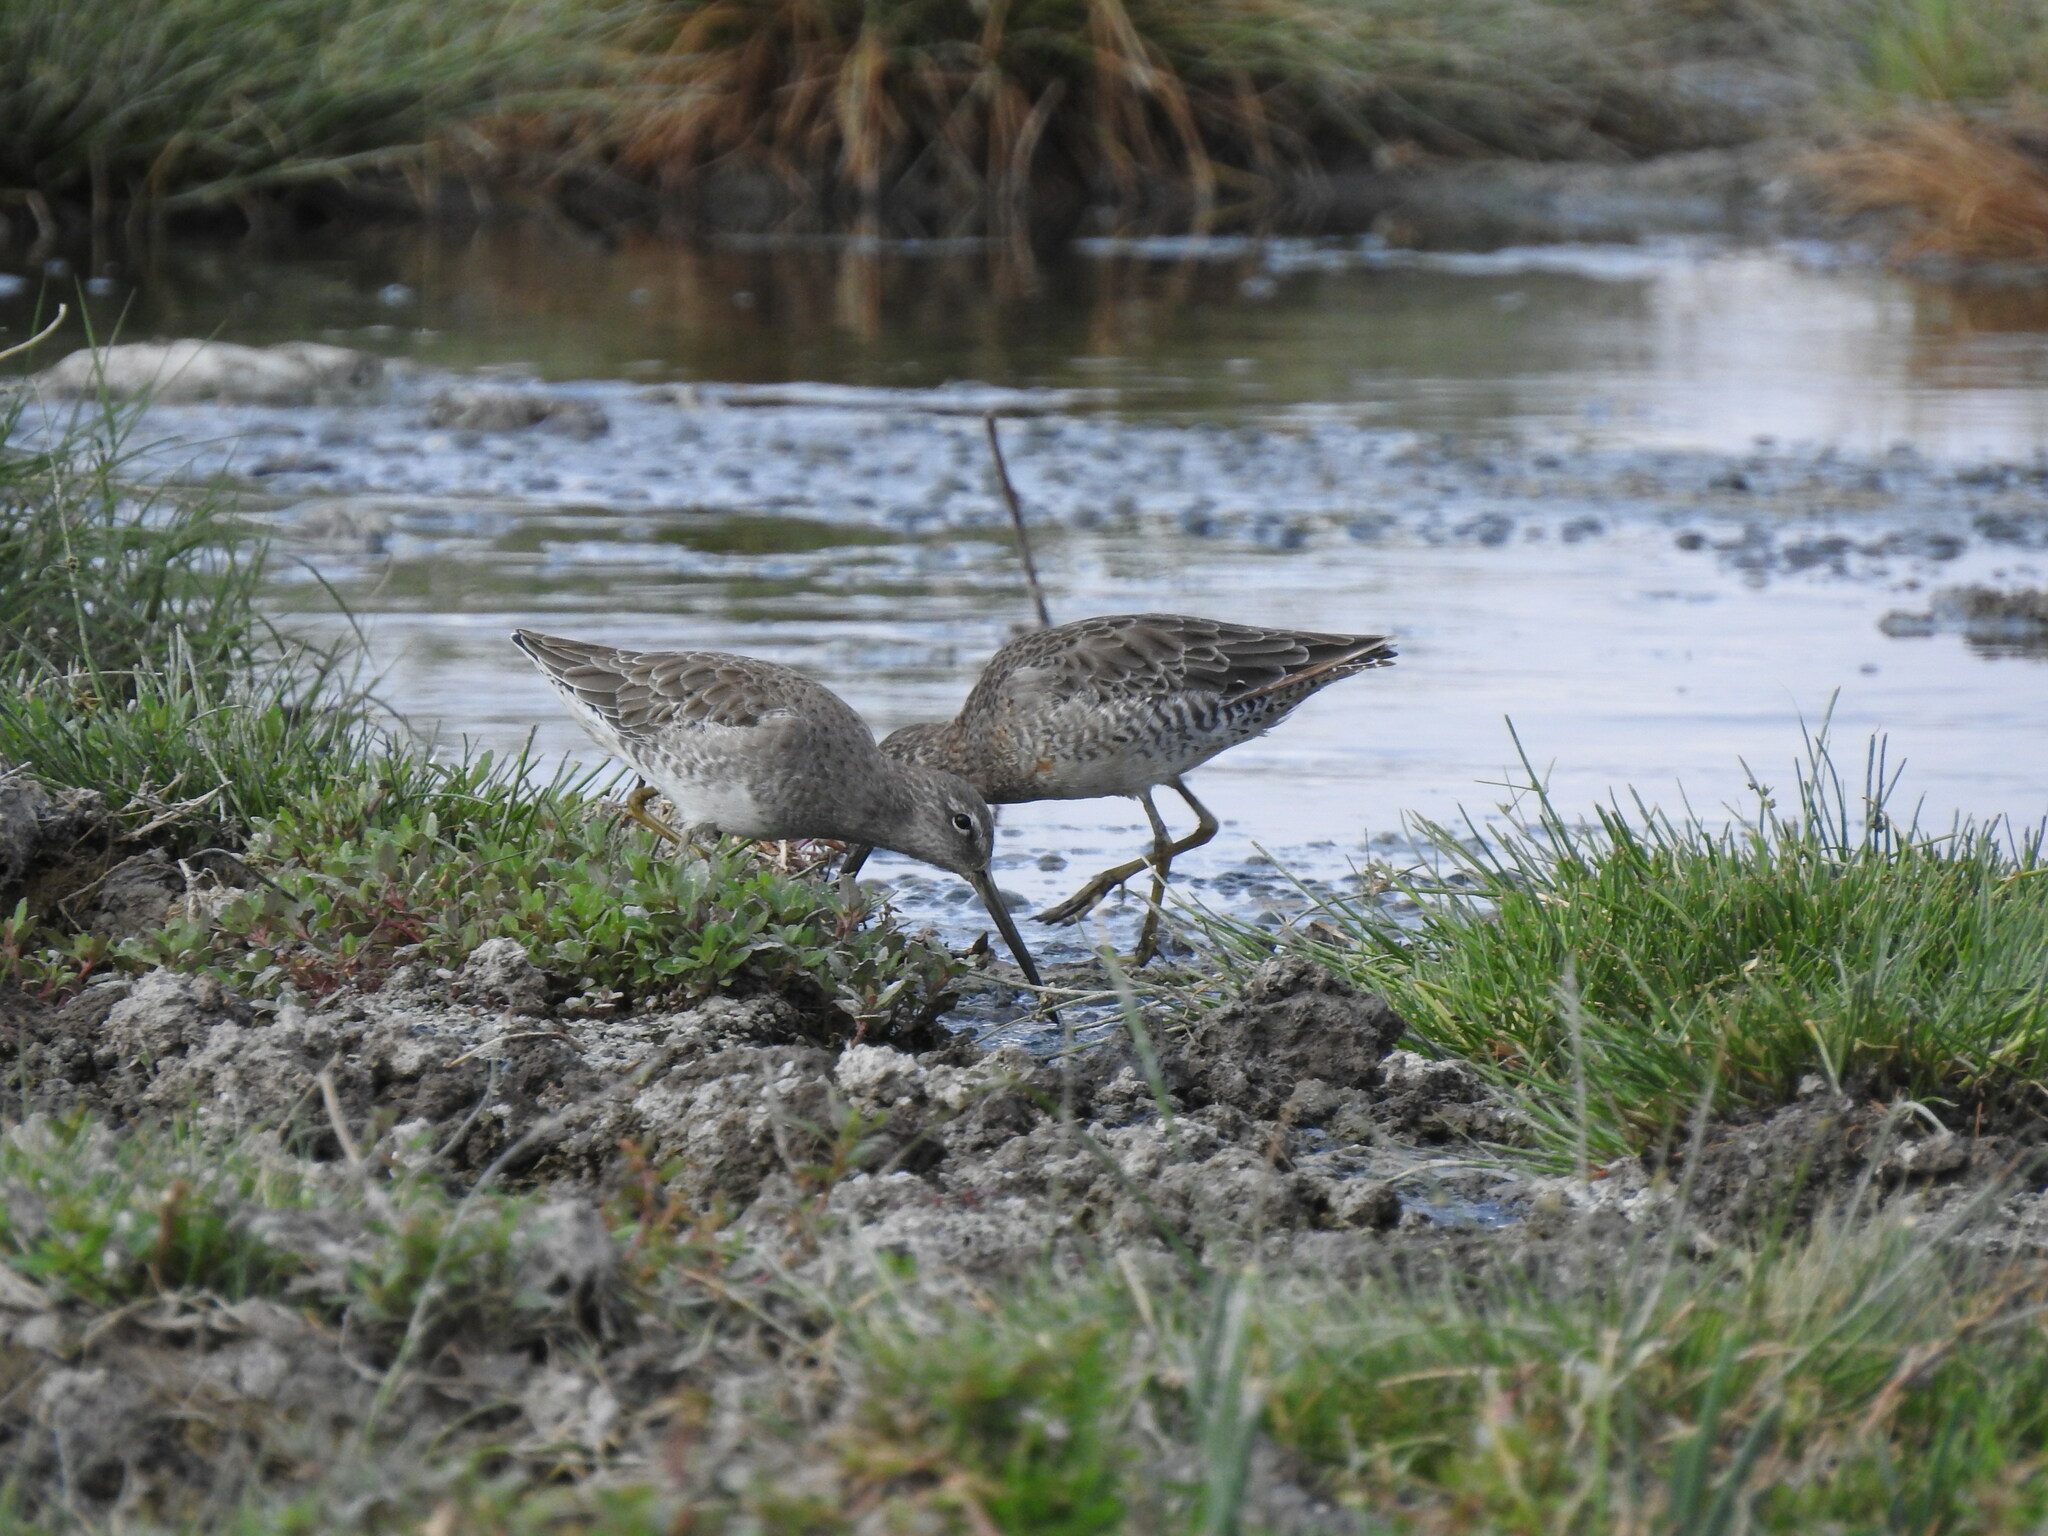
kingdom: Animalia
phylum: Chordata
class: Aves
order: Charadriiformes
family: Scolopacidae
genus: Limnodromus
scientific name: Limnodromus scolopaceus
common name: Long-billed dowitcher
